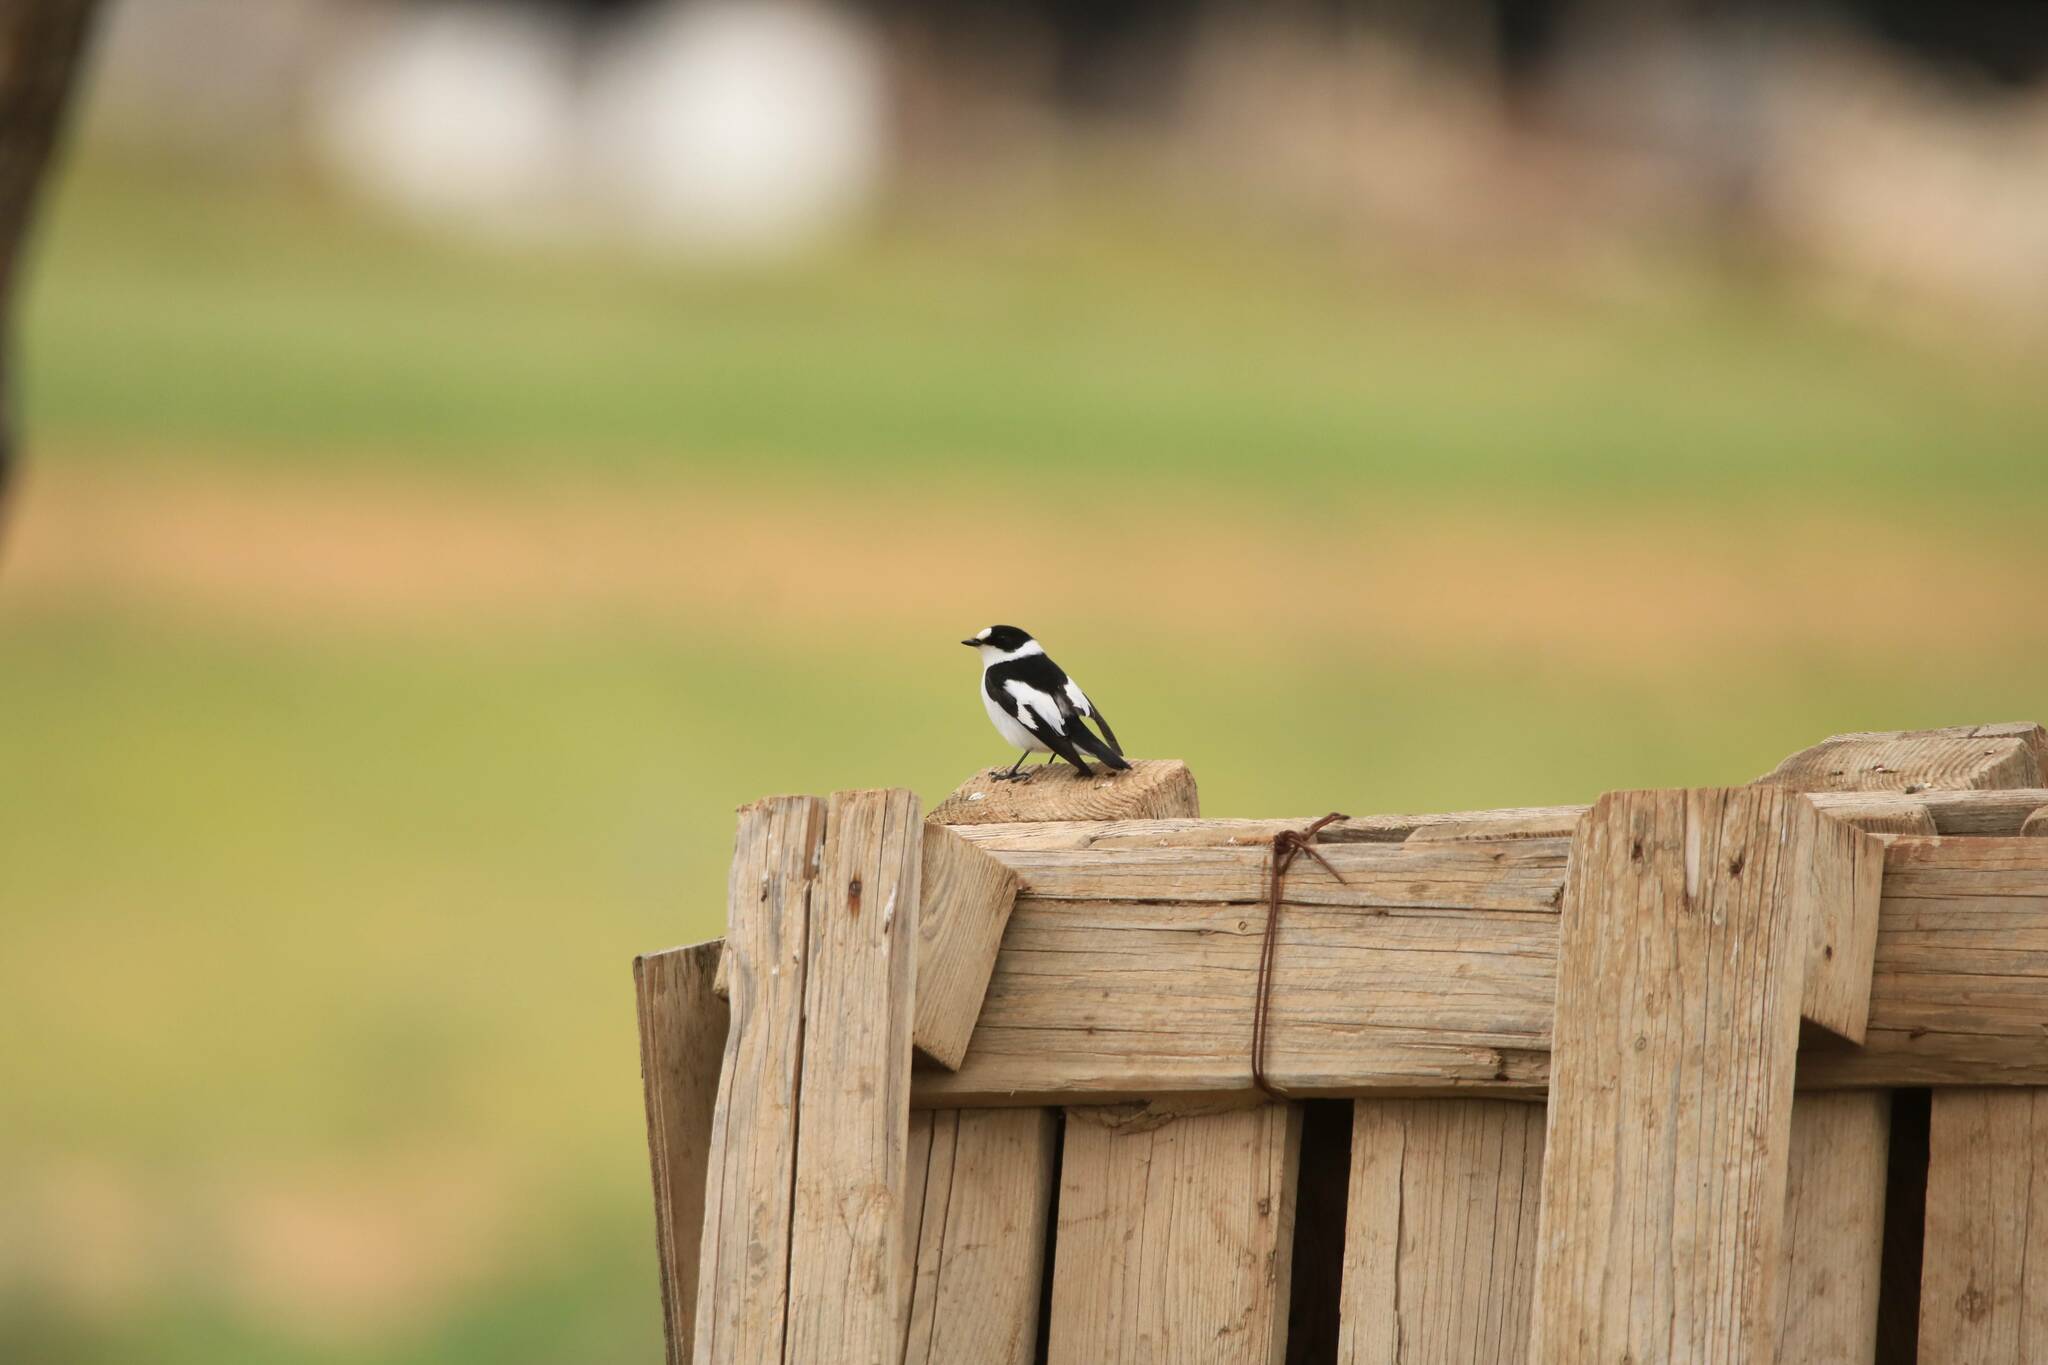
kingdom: Animalia
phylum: Chordata
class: Aves
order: Passeriformes
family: Muscicapidae
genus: Ficedula
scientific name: Ficedula albicollis
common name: Collared flycatcher
